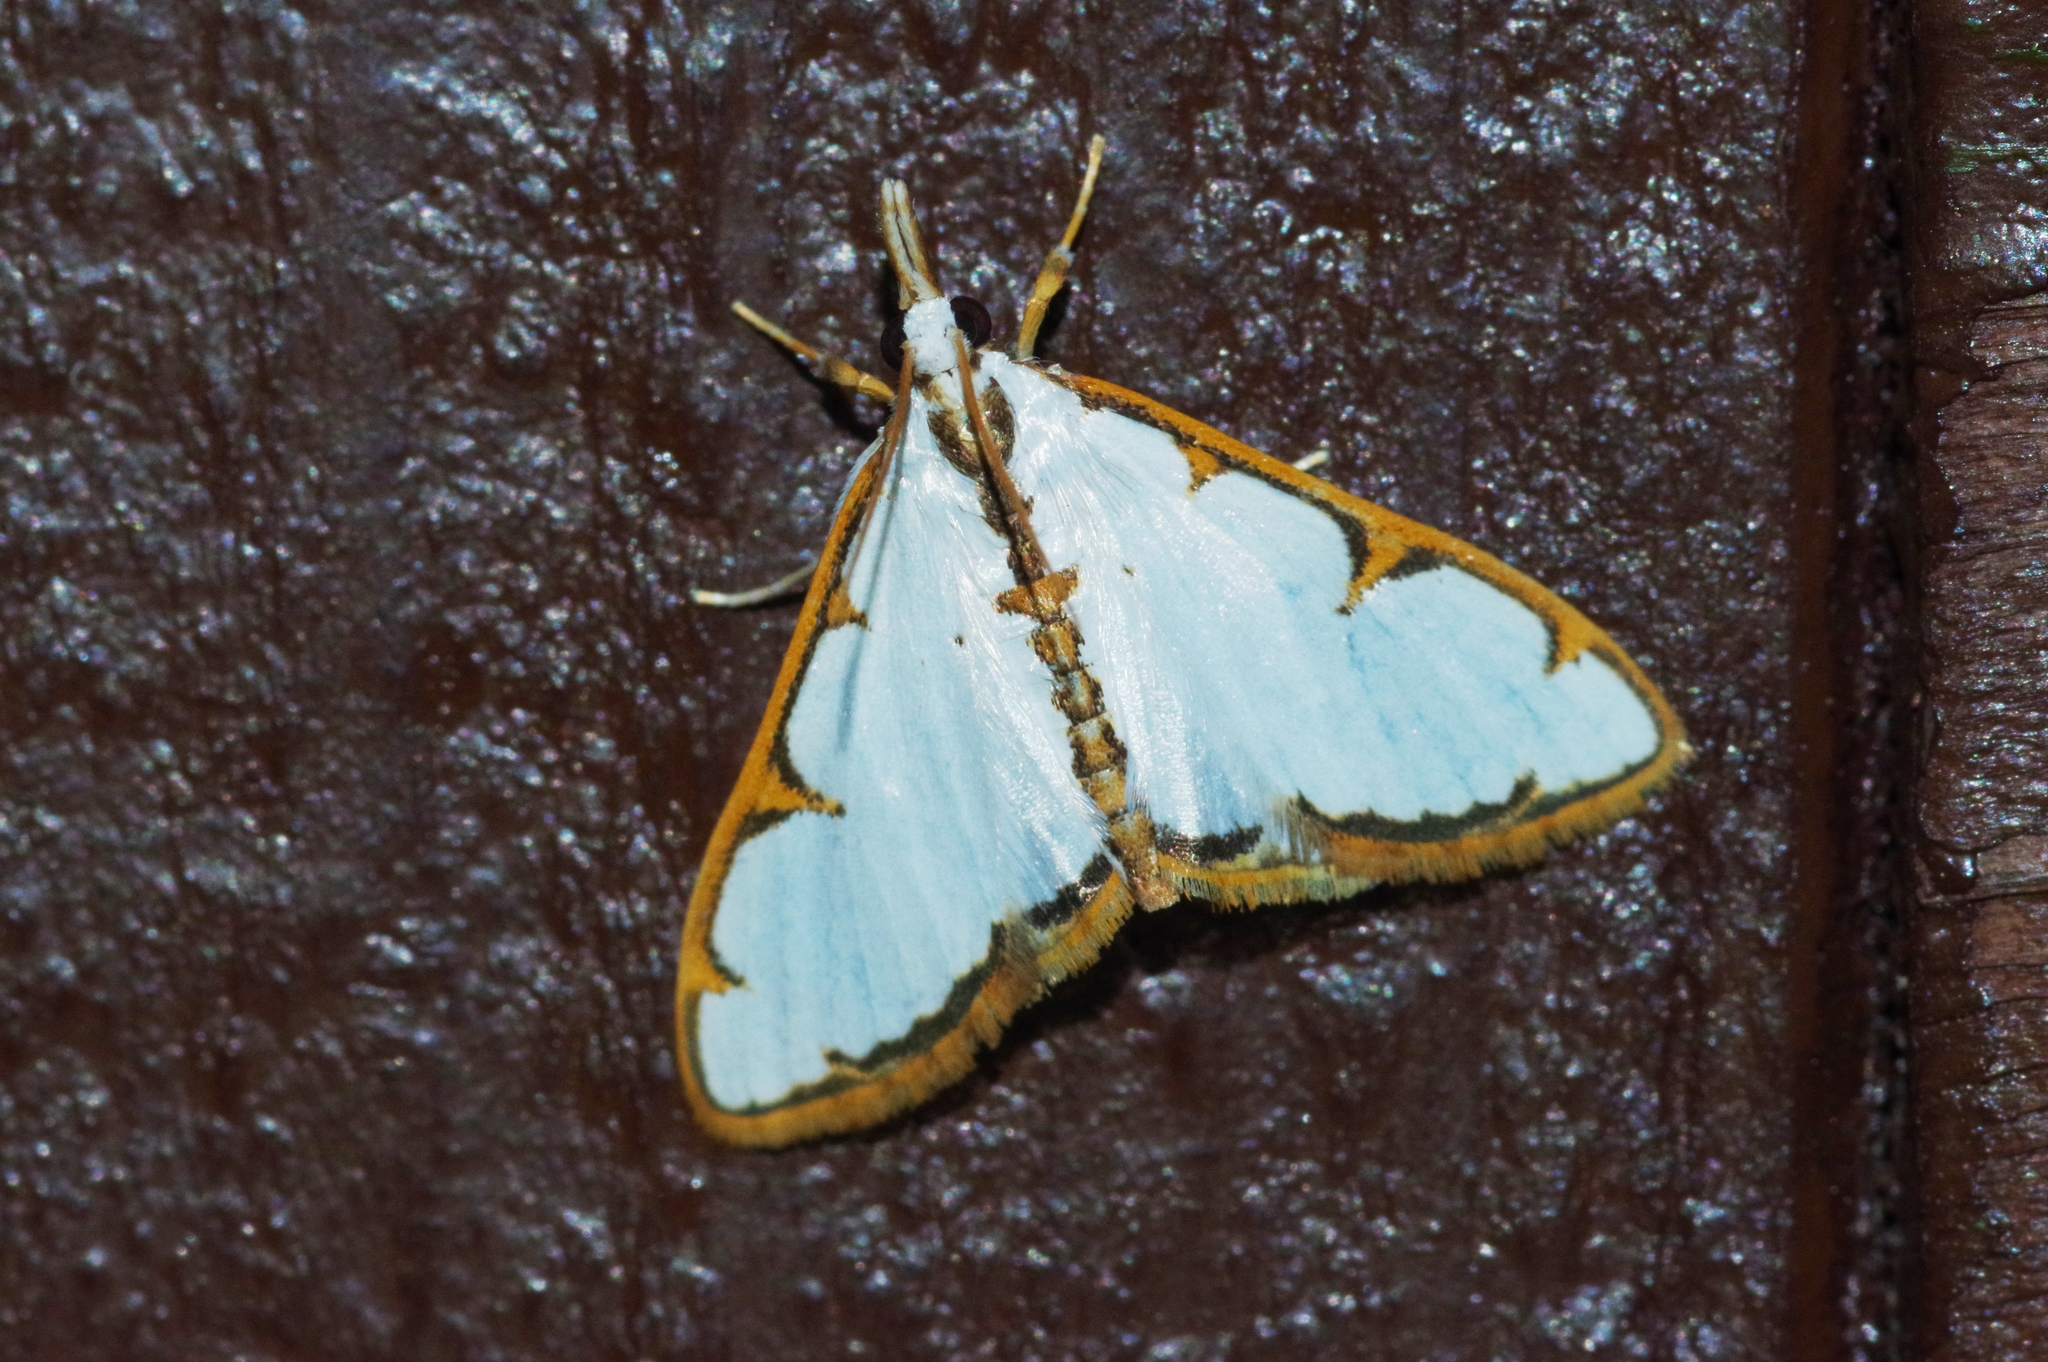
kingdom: Animalia
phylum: Arthropoda
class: Insecta
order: Lepidoptera
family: Crambidae
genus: Cirrhochrista
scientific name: Cirrhochrista brizoalis
